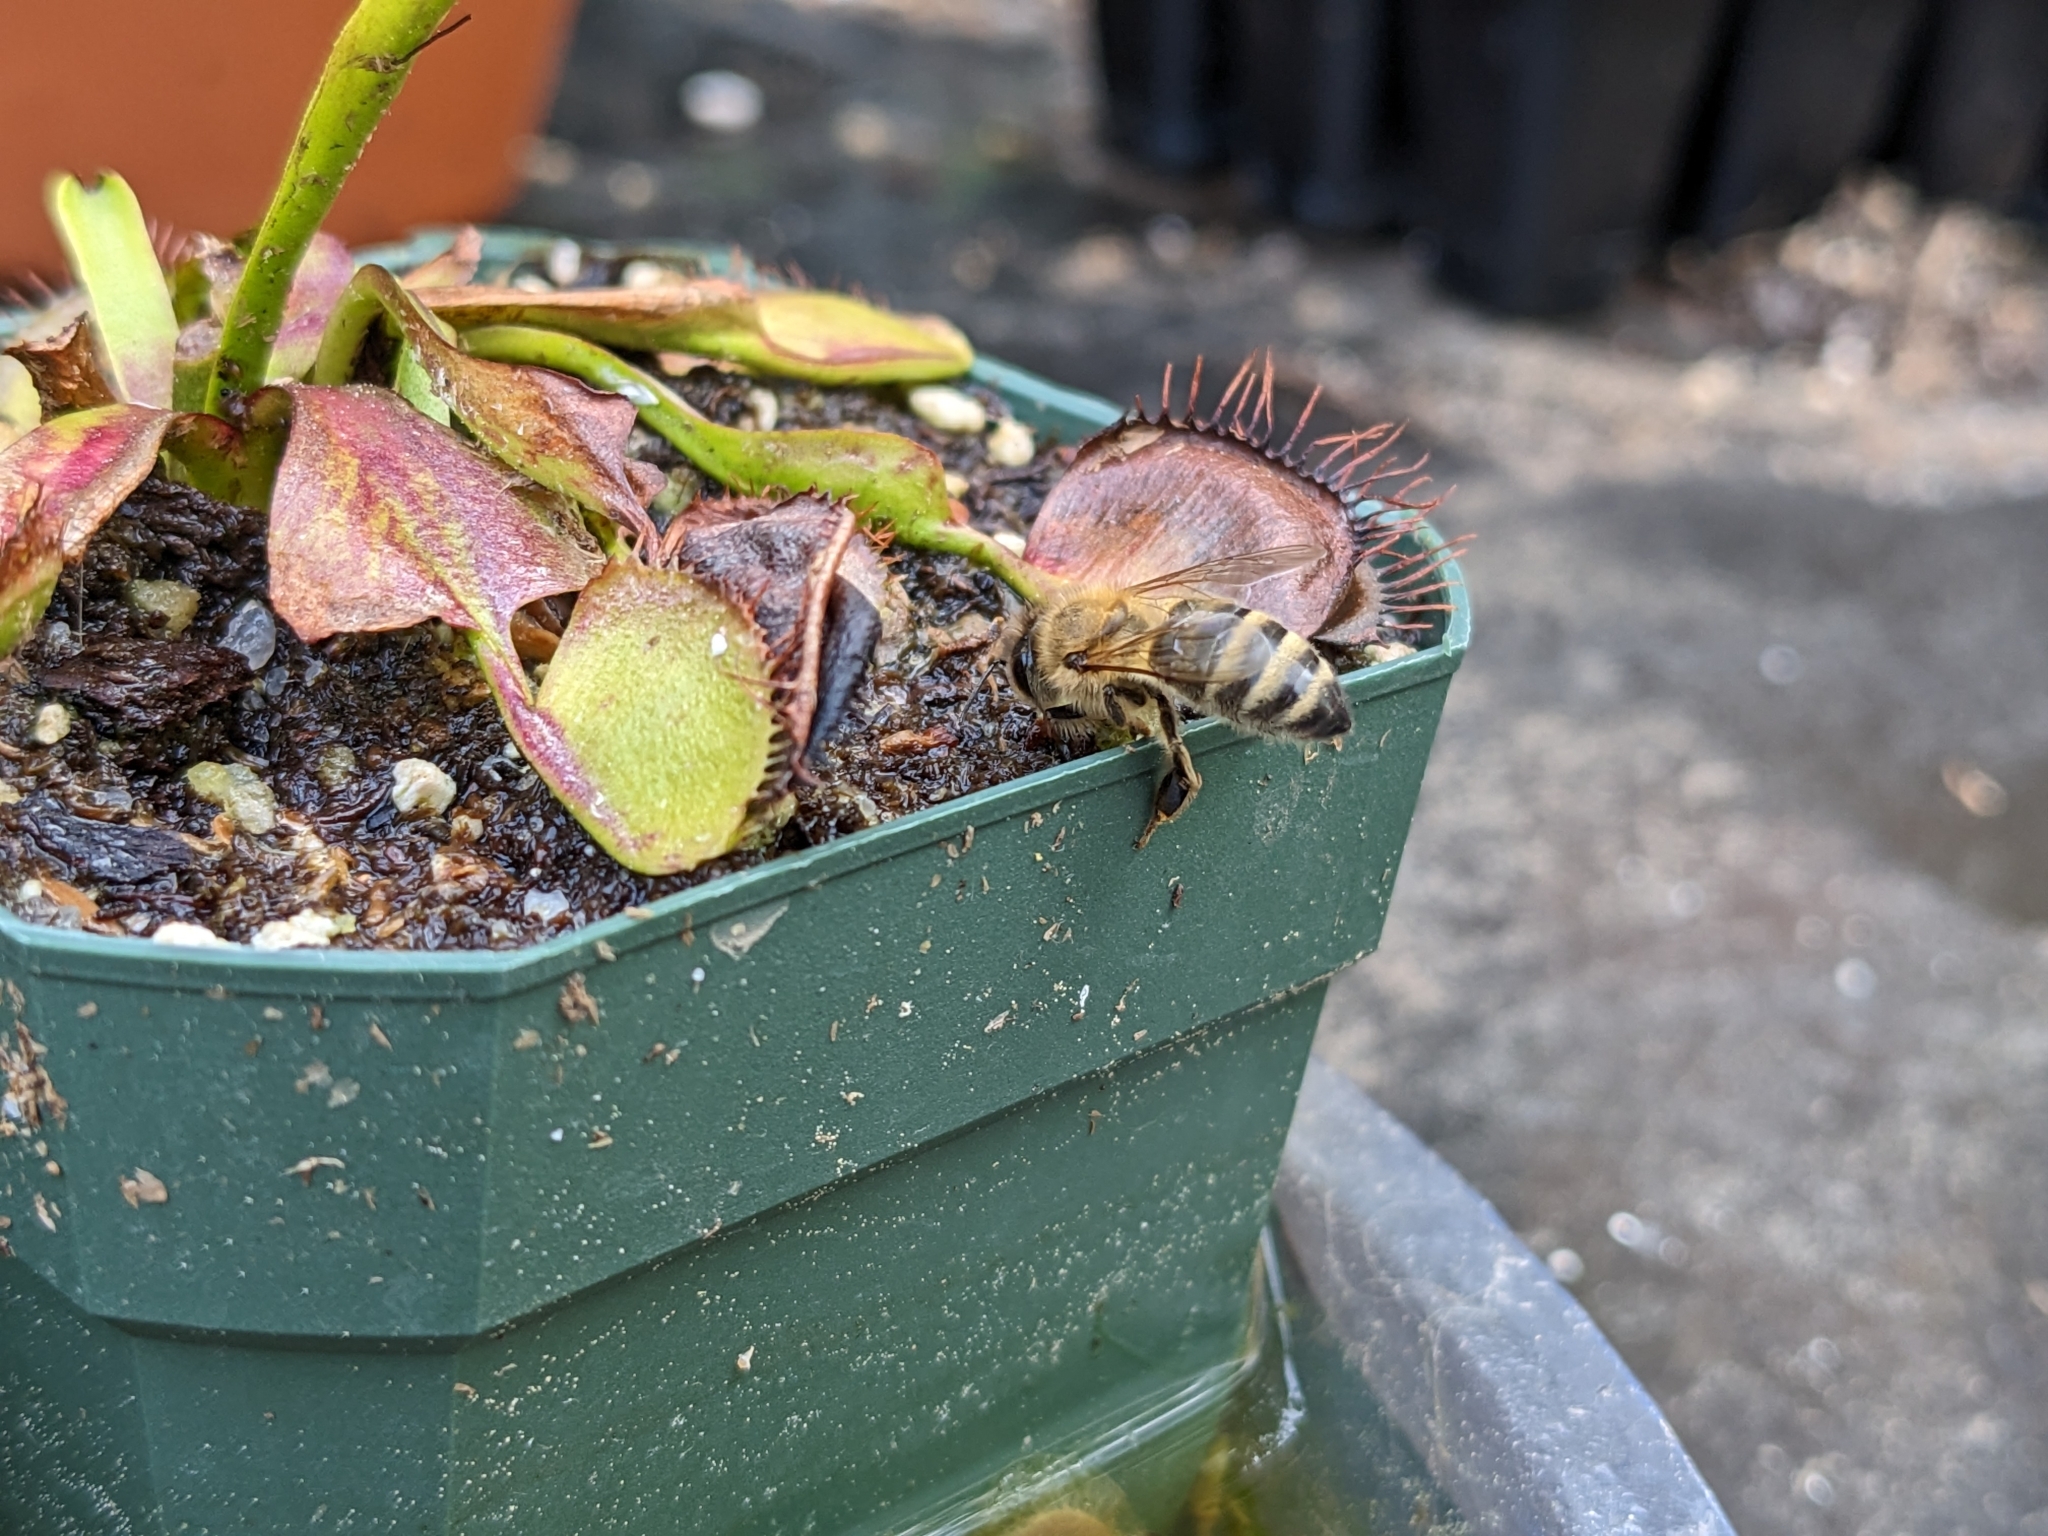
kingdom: Animalia
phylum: Arthropoda
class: Insecta
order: Hymenoptera
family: Apidae
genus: Apis
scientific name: Apis mellifera
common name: Honey bee
